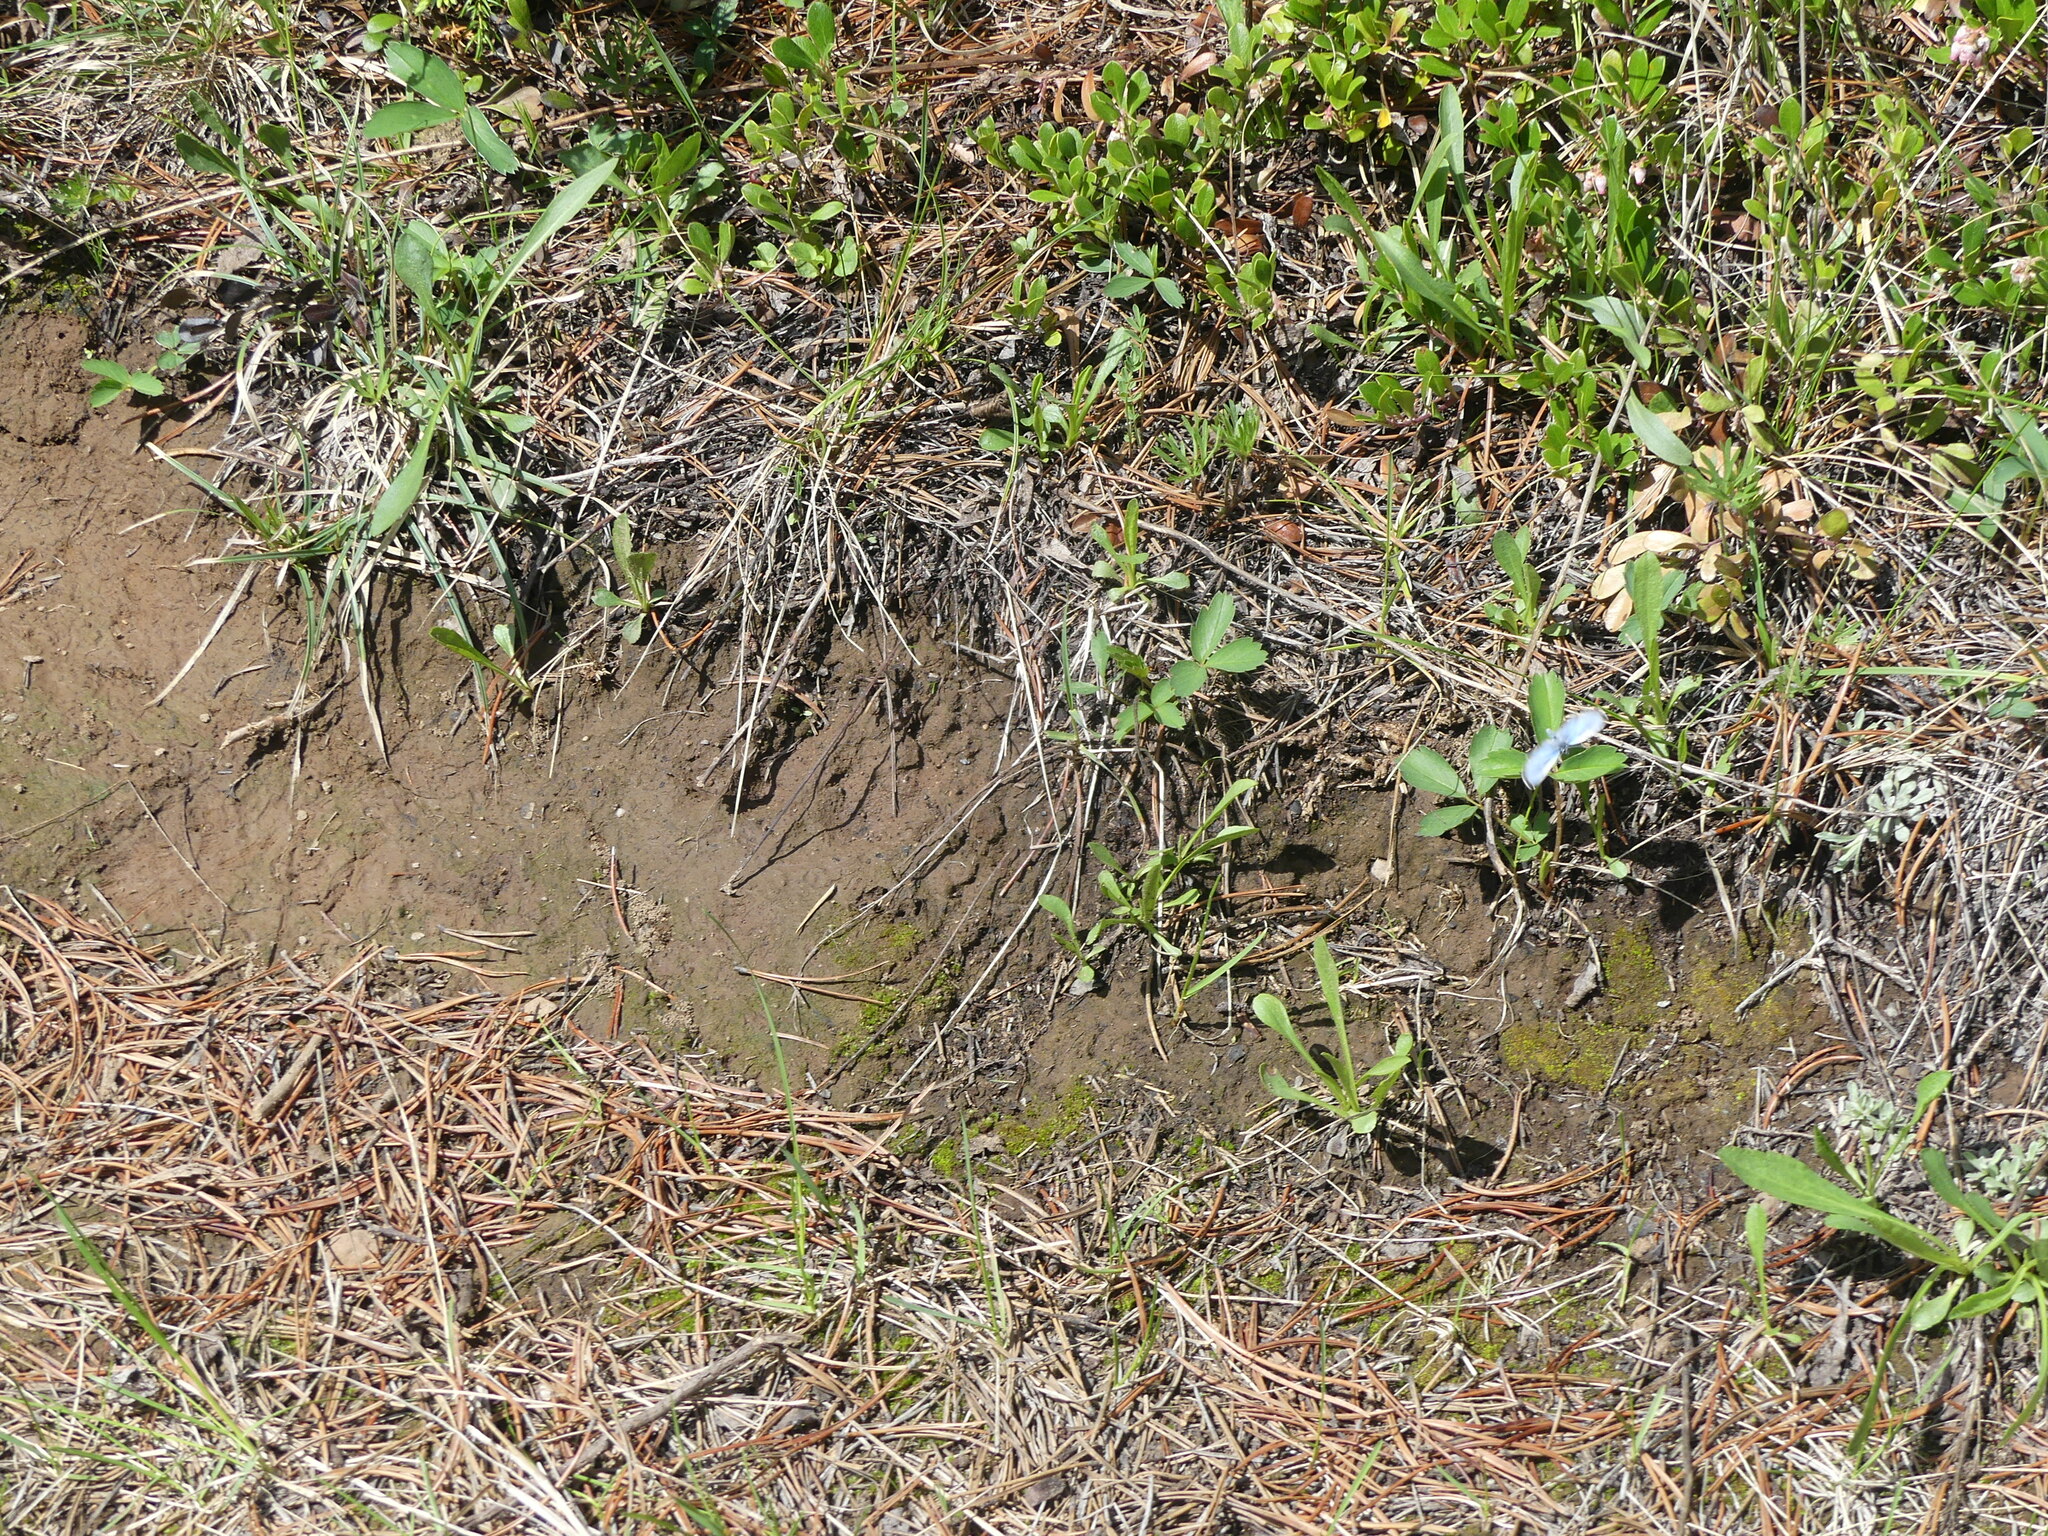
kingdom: Animalia
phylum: Arthropoda
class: Insecta
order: Lepidoptera
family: Lycaenidae
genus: Glaucopsyche
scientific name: Glaucopsyche lygdamus
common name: Silvery blue
